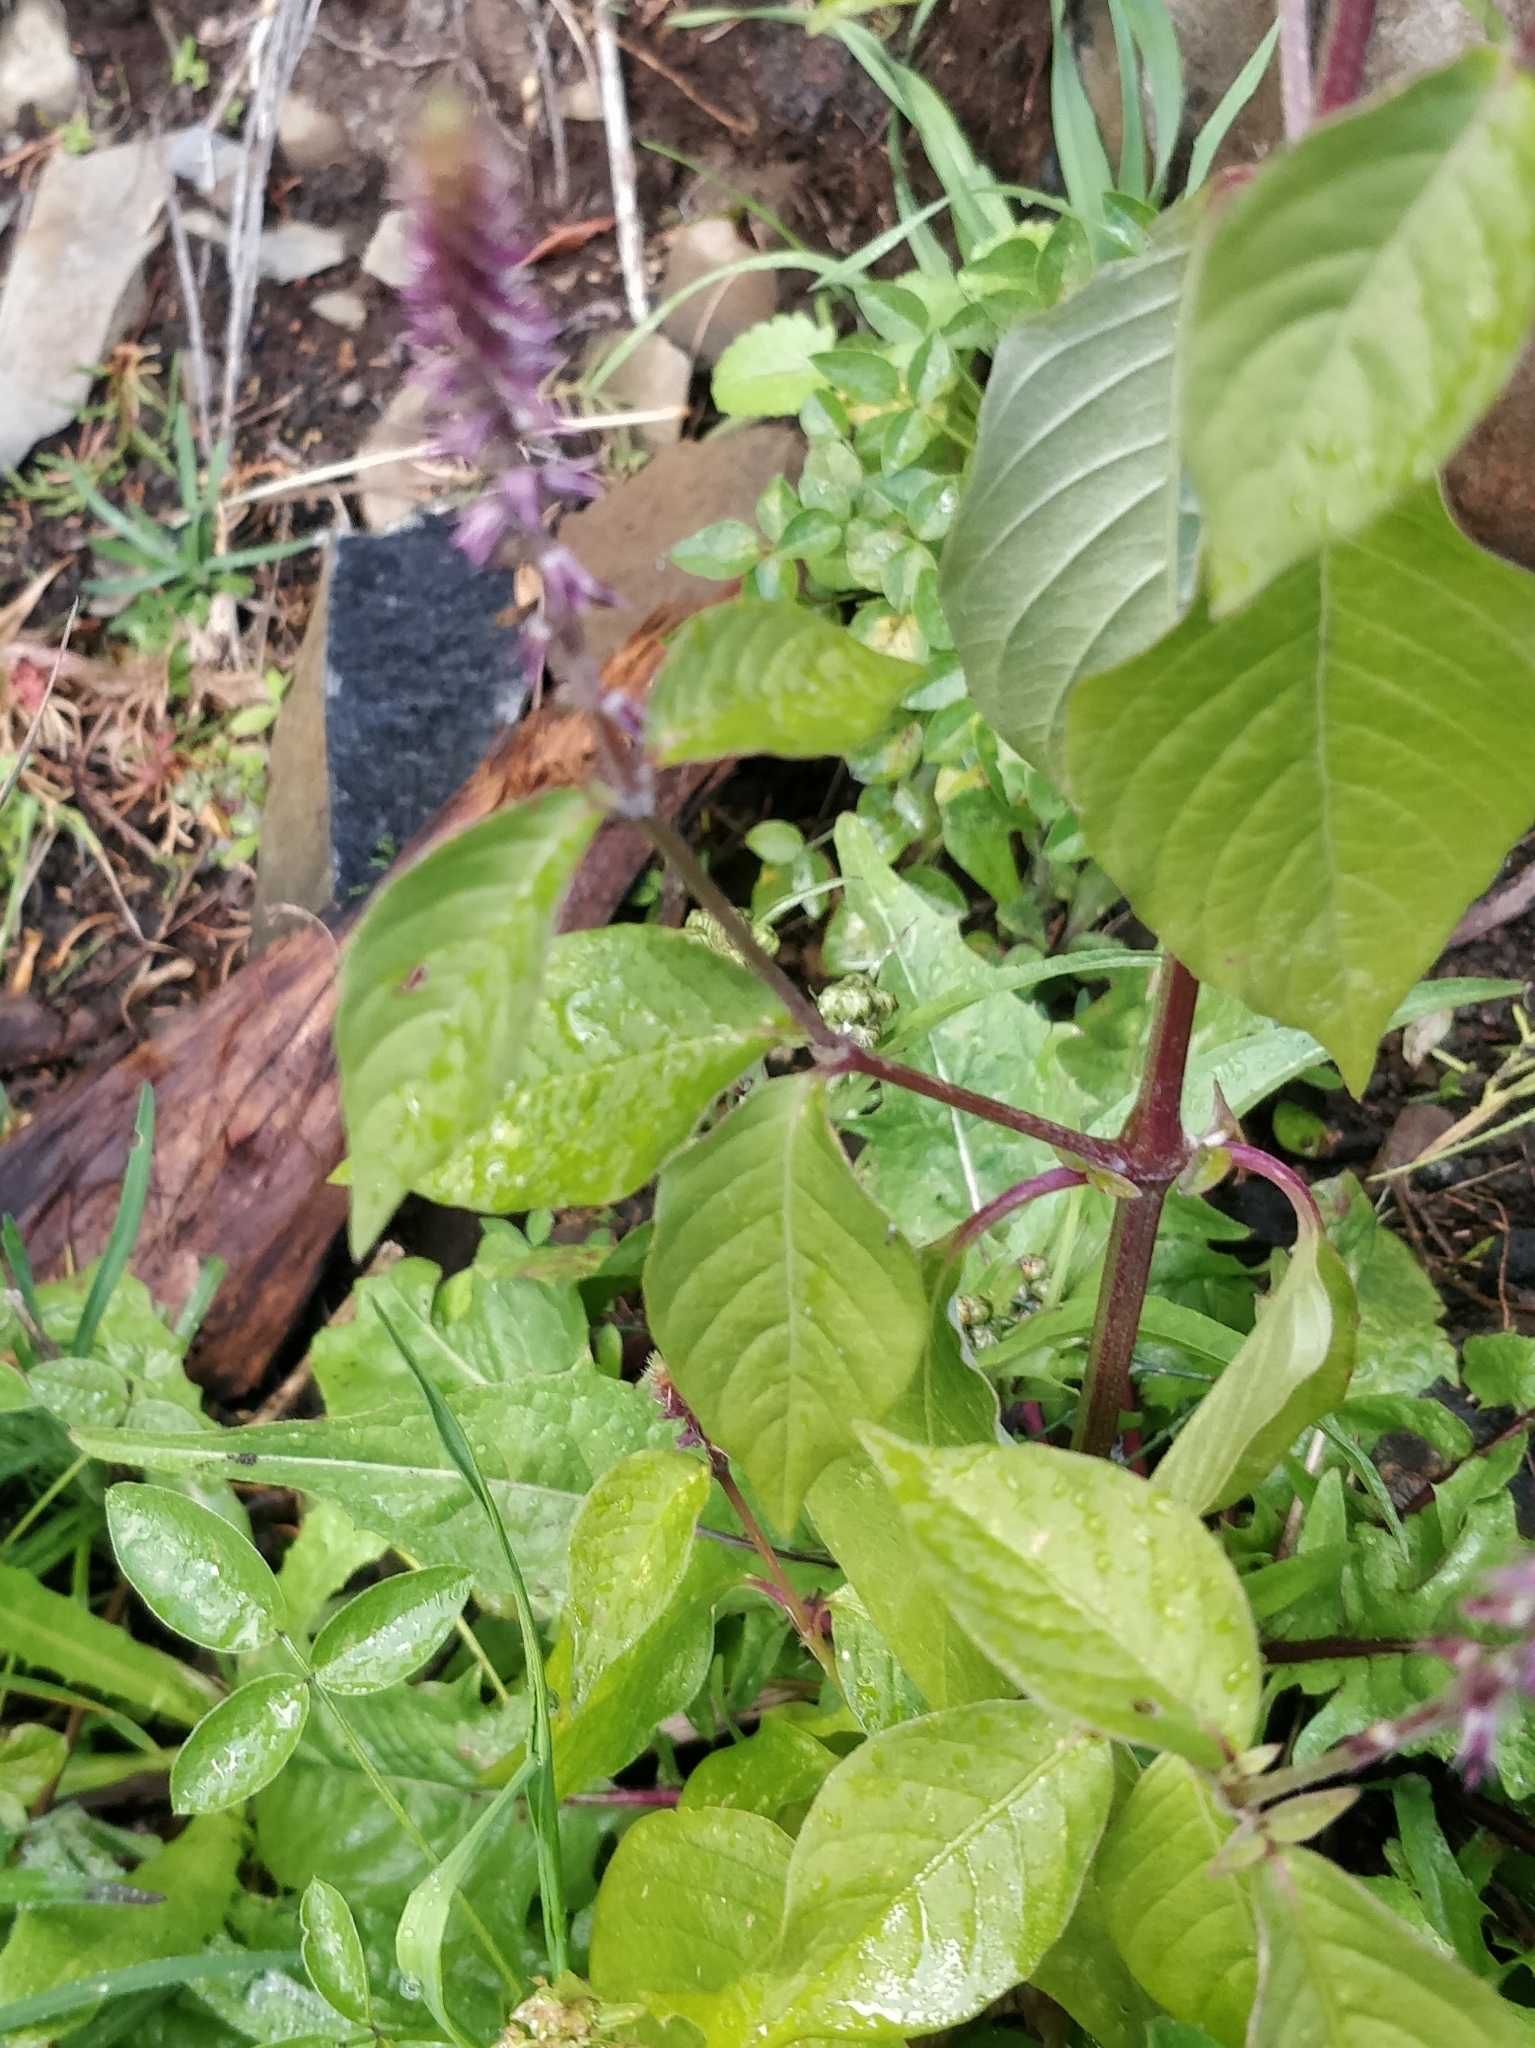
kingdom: Plantae
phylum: Tracheophyta
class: Magnoliopsida
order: Caryophyllales
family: Amaranthaceae
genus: Achyranthes
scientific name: Achyranthes aspera
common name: Devil's horsewhip
